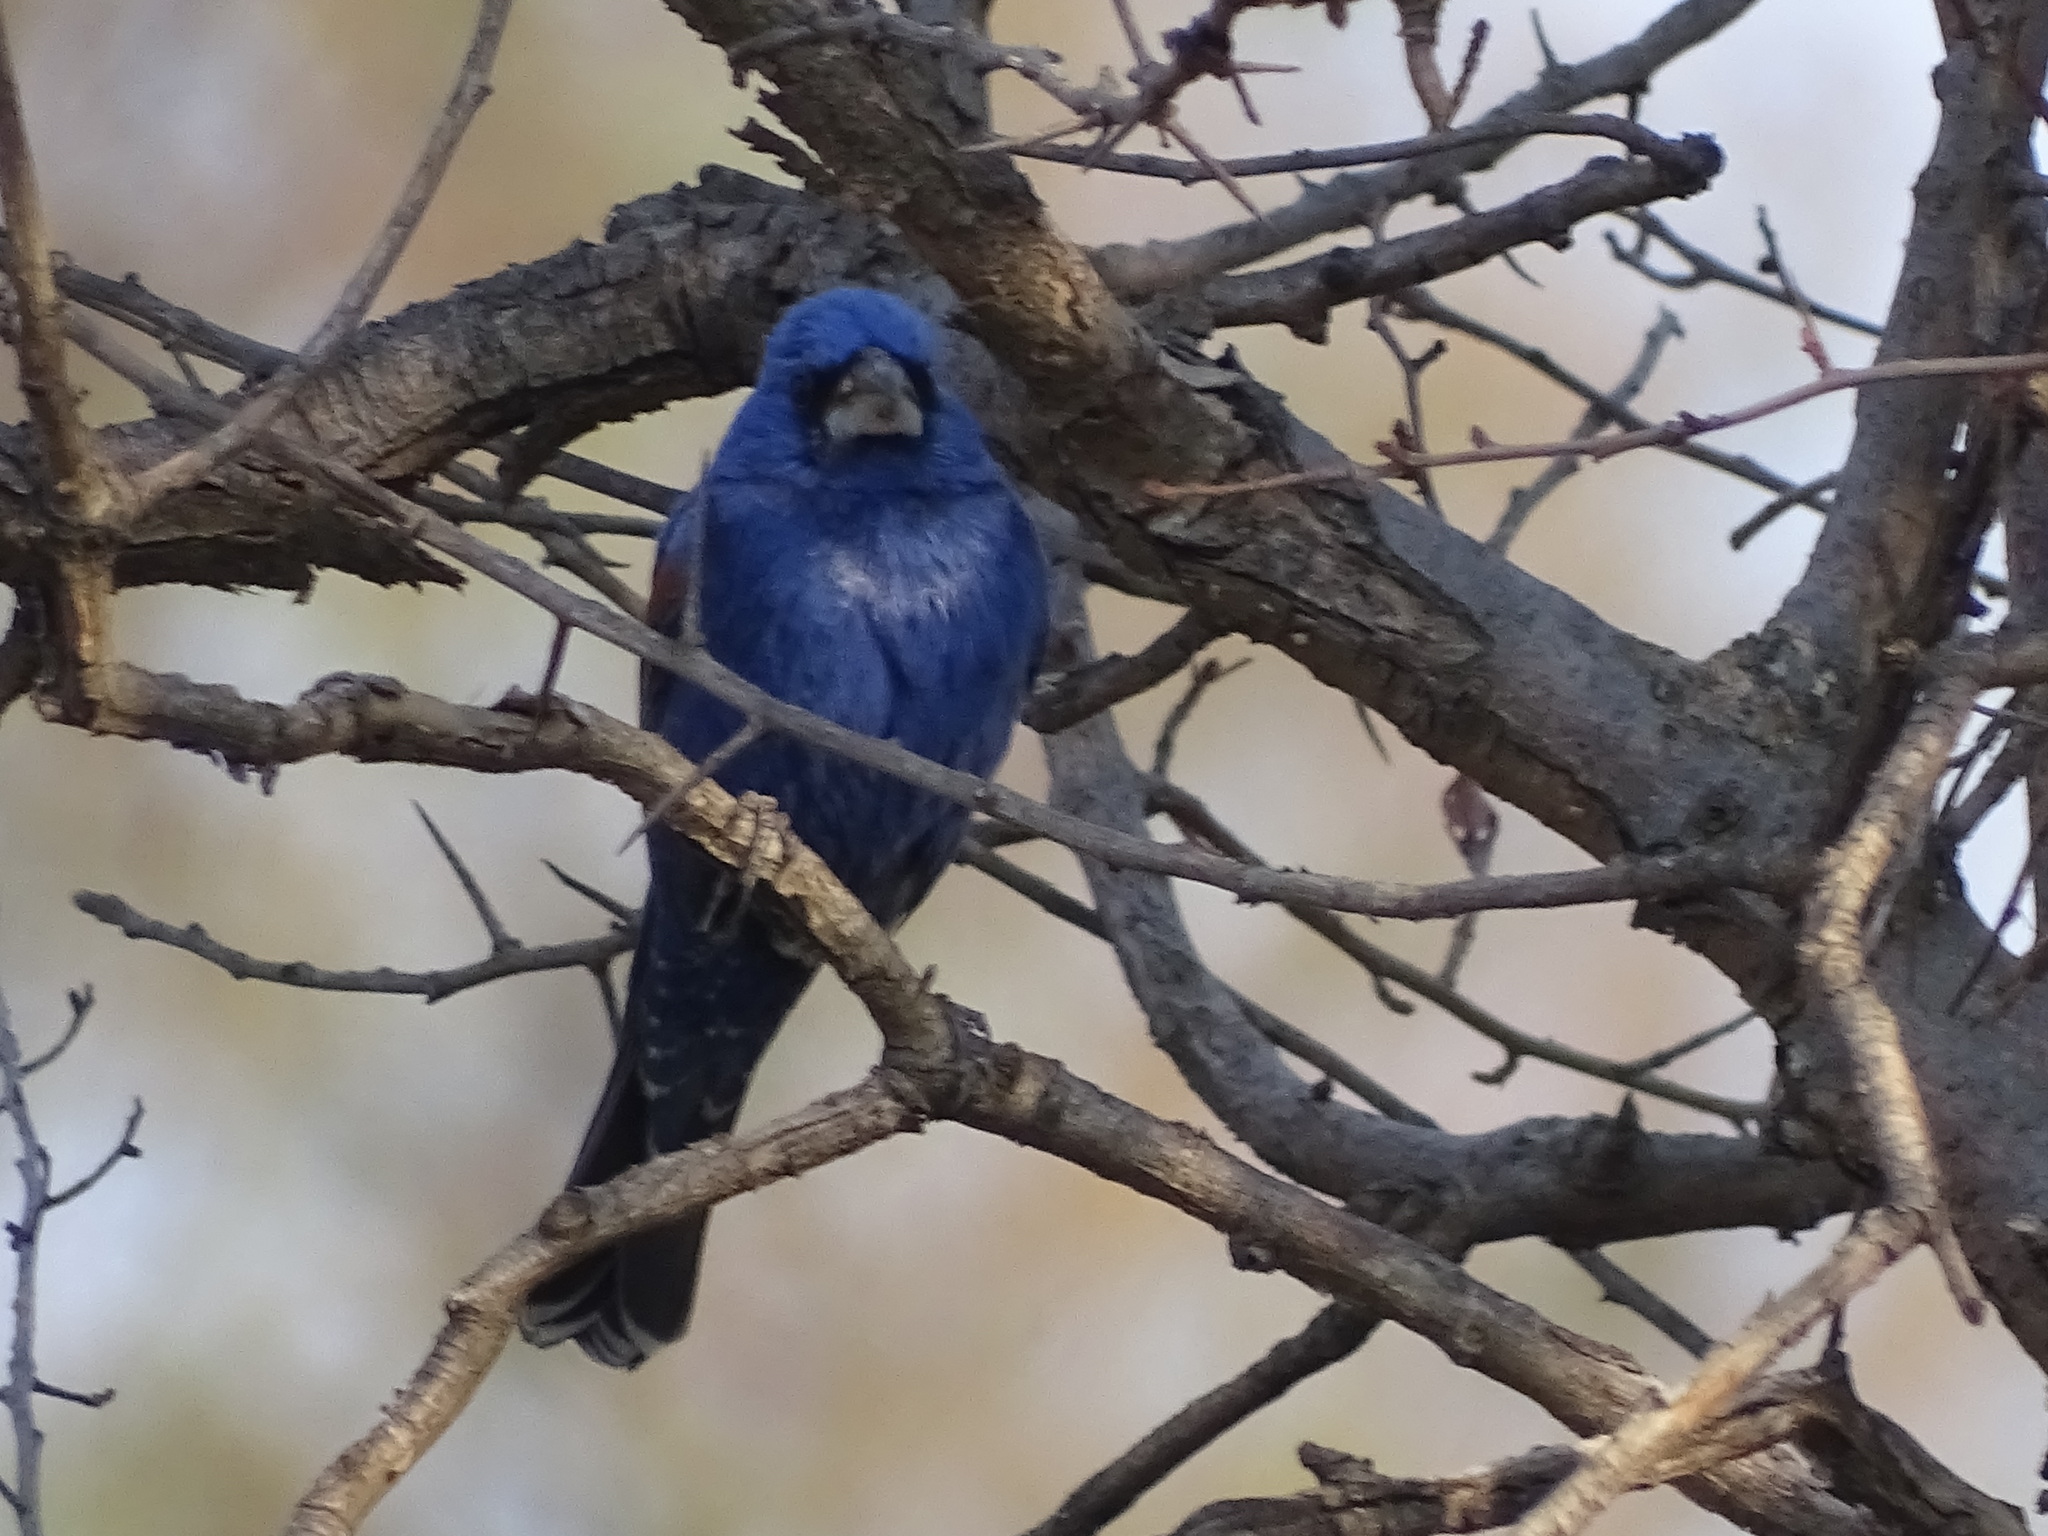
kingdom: Animalia
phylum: Chordata
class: Aves
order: Passeriformes
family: Cardinalidae
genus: Passerina
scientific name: Passerina caerulea
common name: Blue grosbeak
